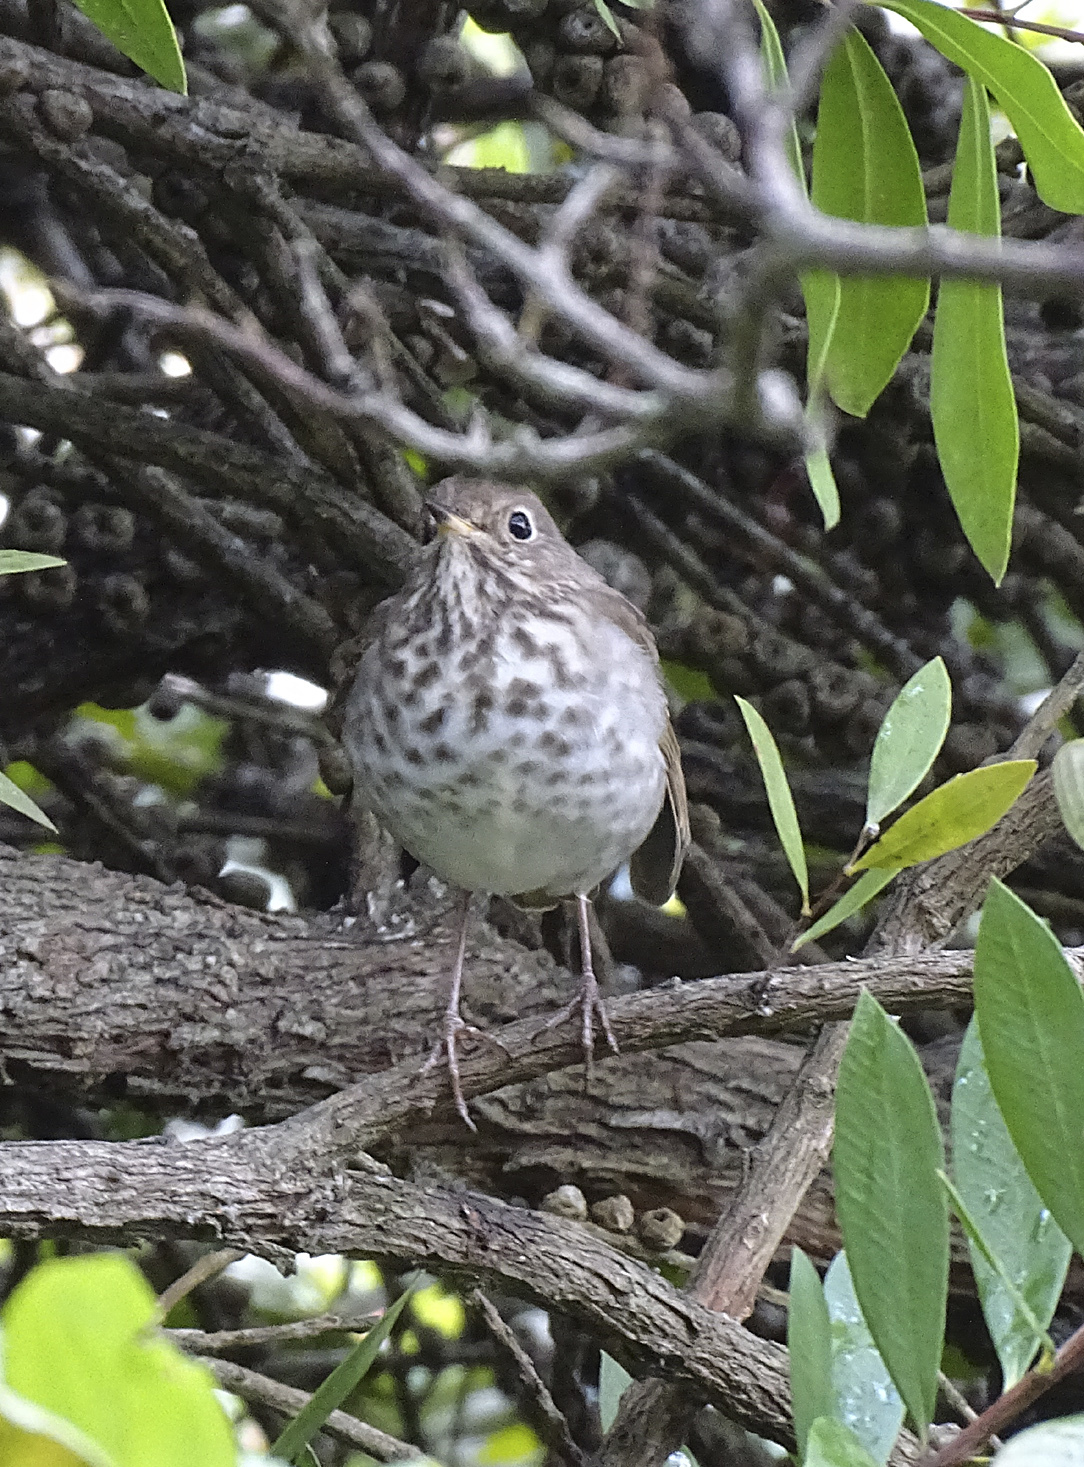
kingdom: Animalia
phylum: Chordata
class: Aves
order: Passeriformes
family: Turdidae
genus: Catharus
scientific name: Catharus guttatus
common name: Hermit thrush
